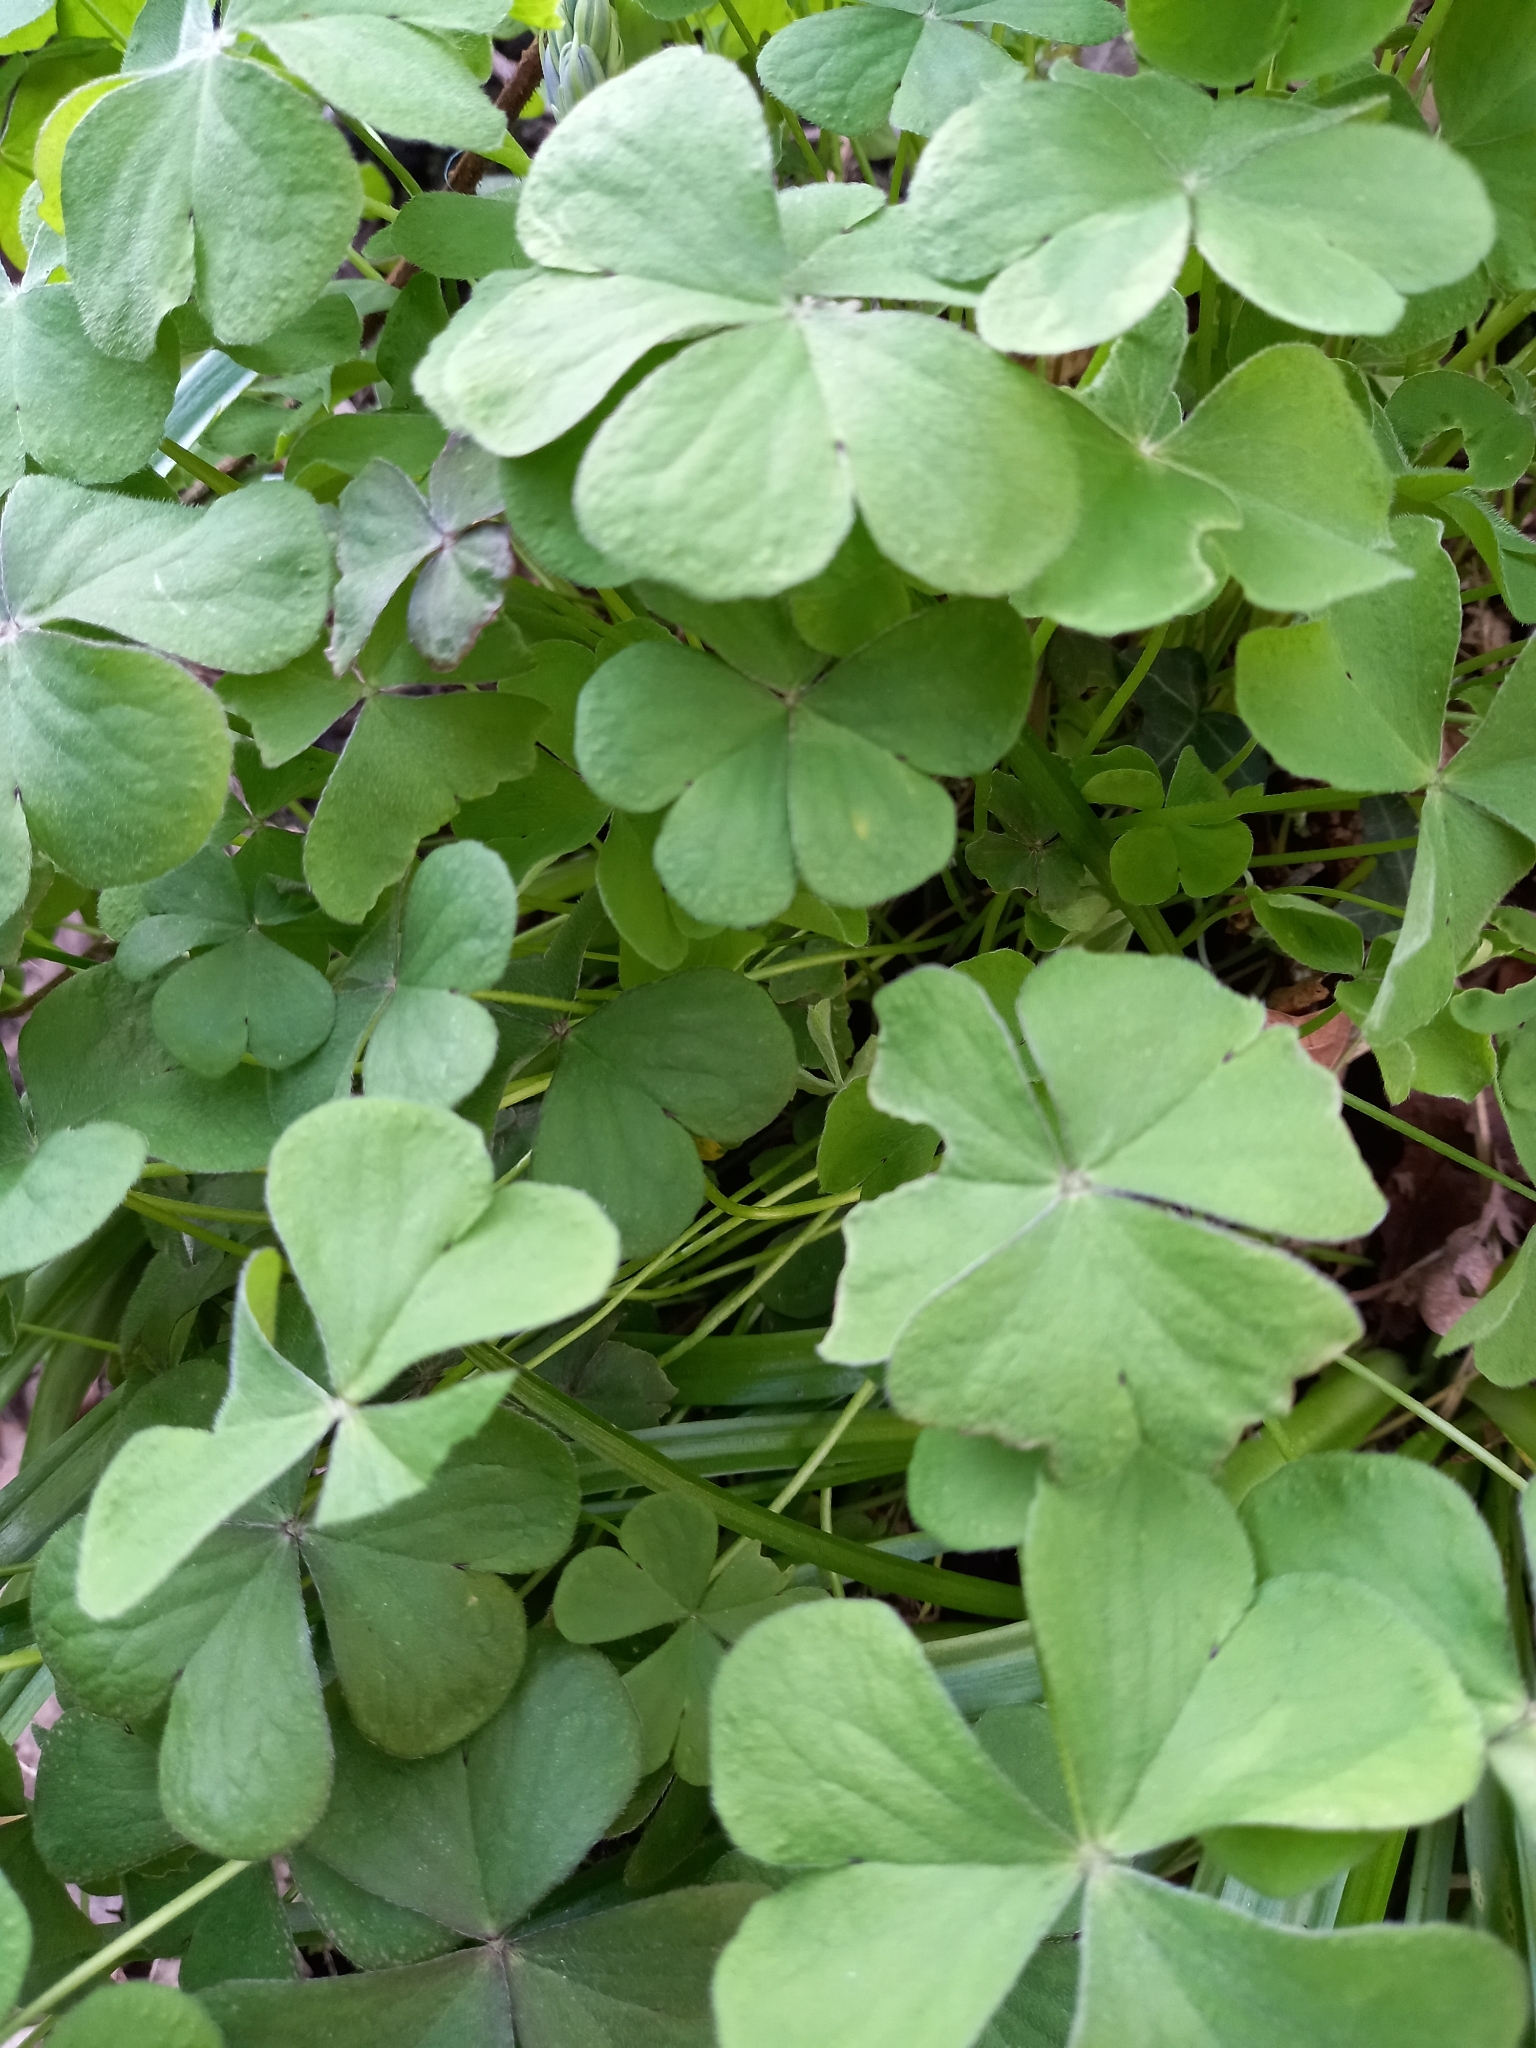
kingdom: Plantae
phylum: Tracheophyta
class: Magnoliopsida
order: Oxalidales
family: Oxalidaceae
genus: Oxalis
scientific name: Oxalis articulata
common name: Pink-sorrel
